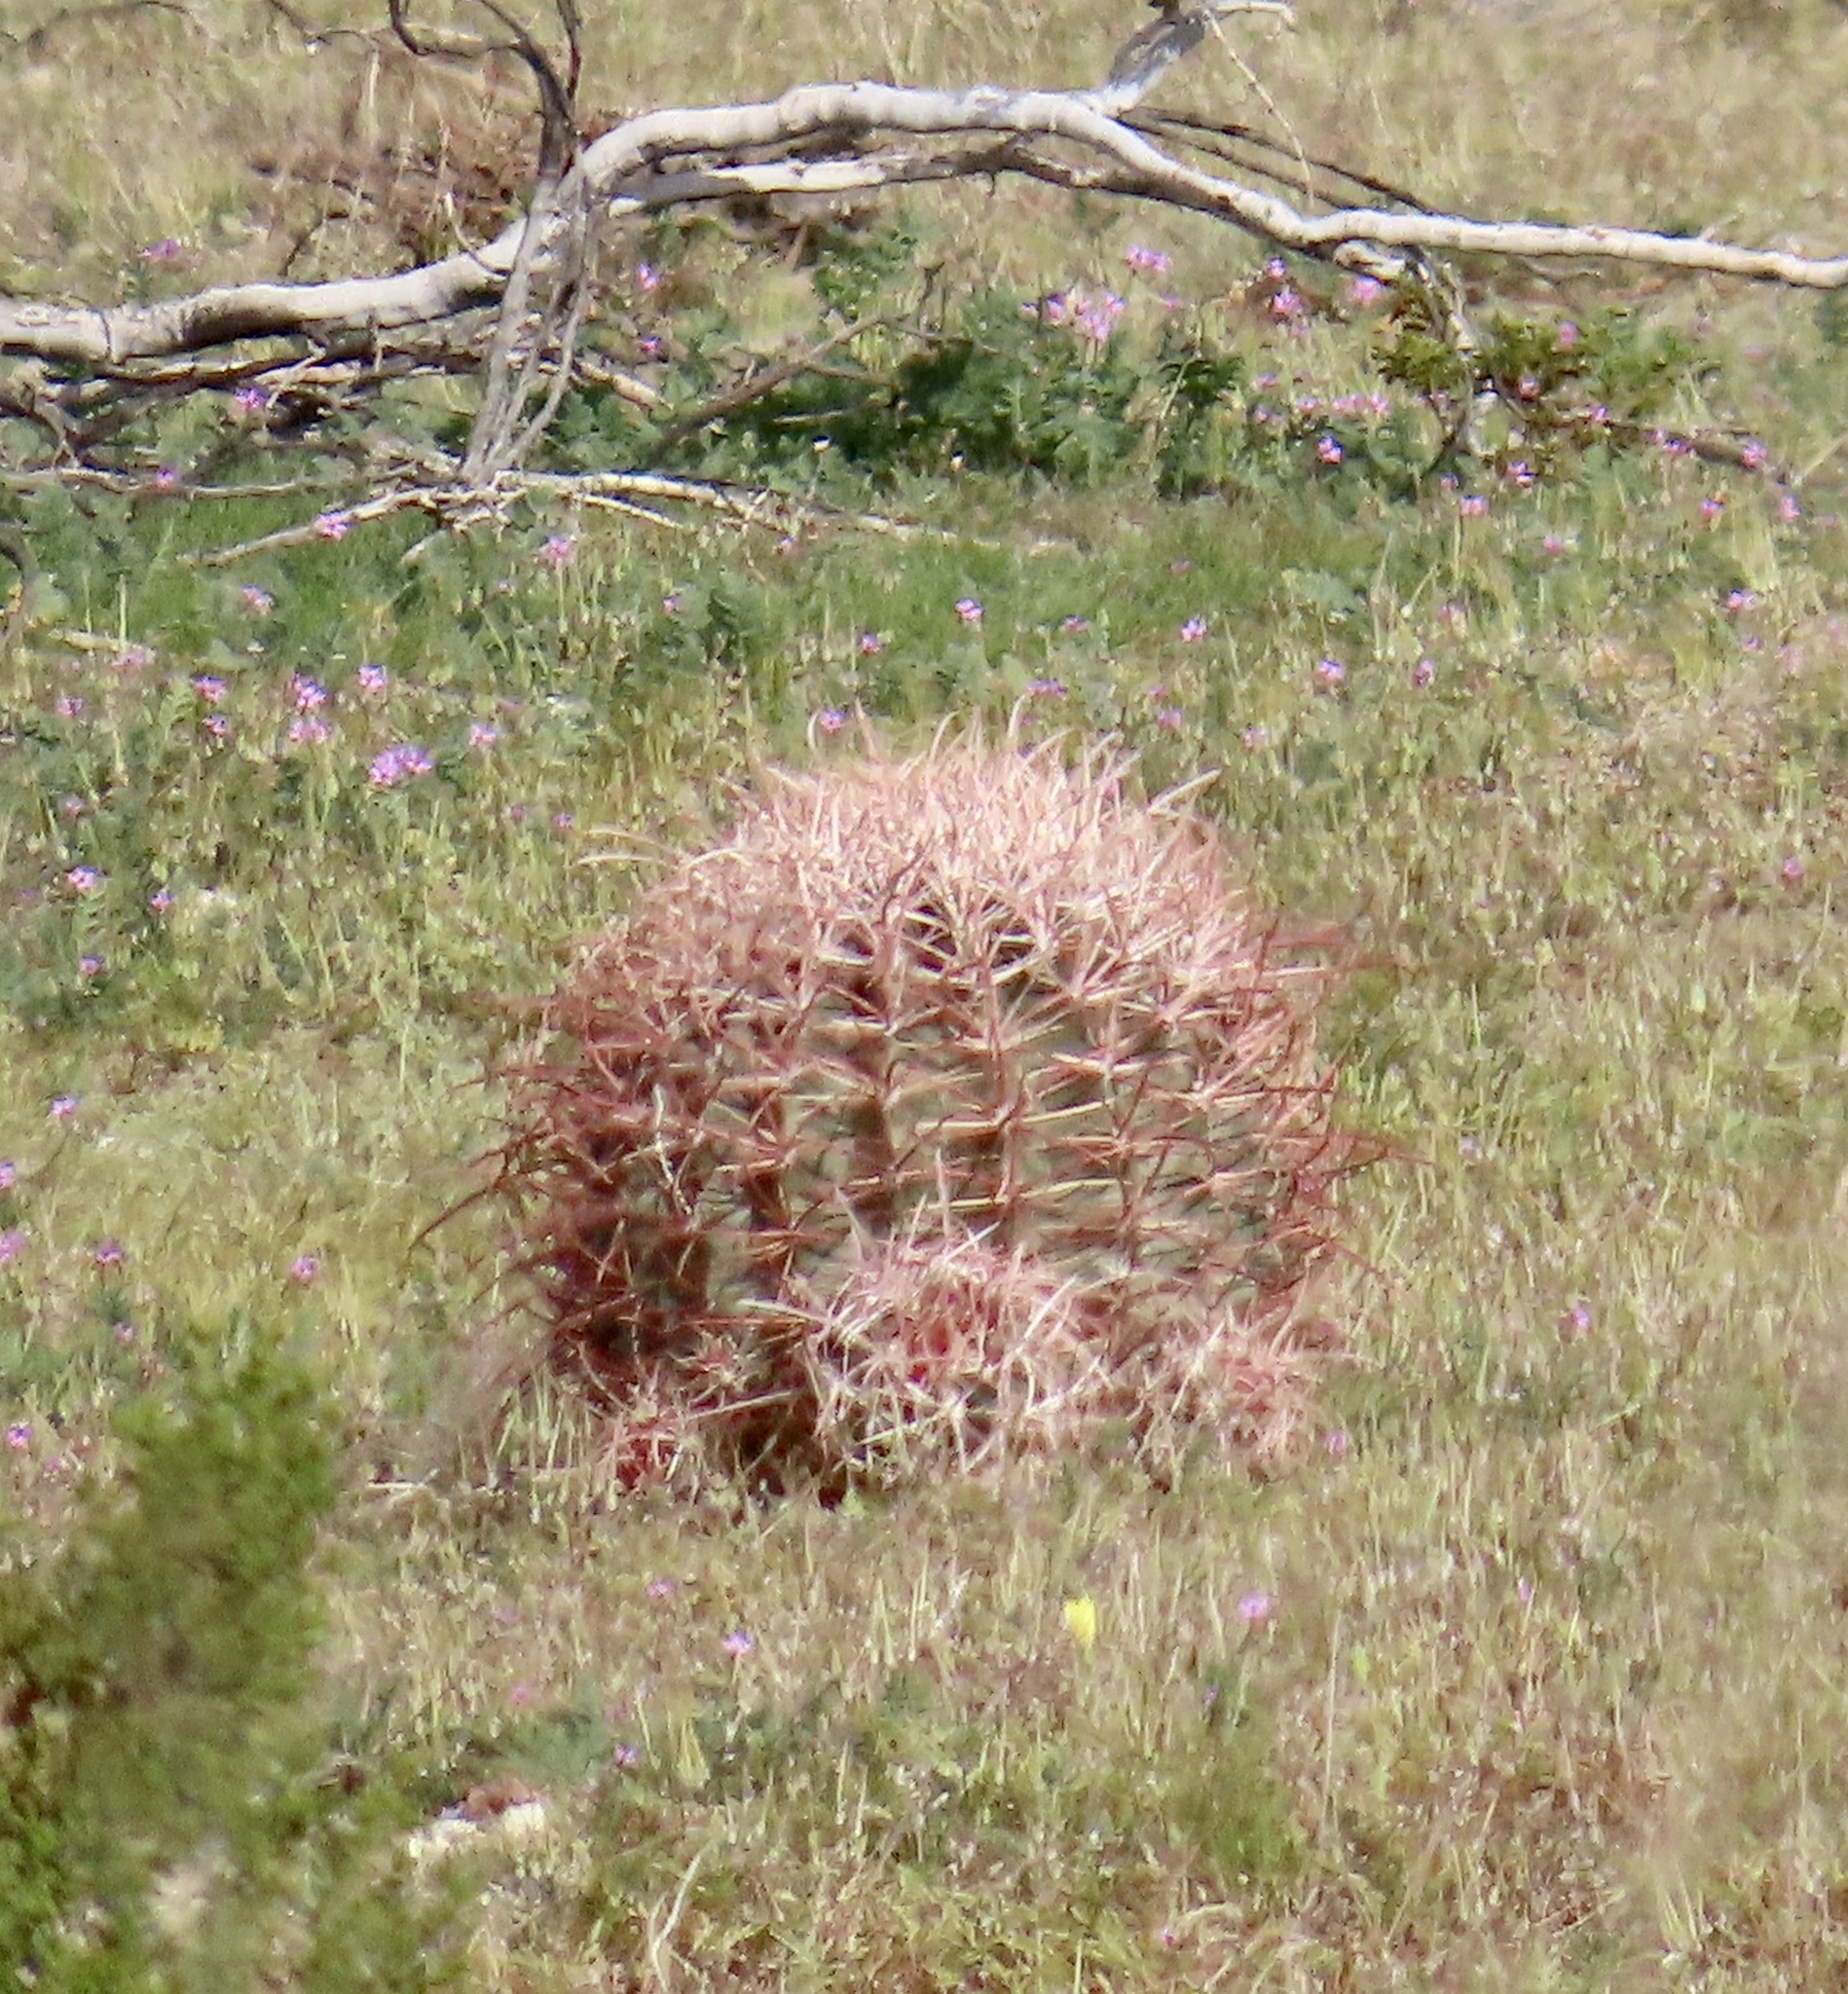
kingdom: Plantae
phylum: Tracheophyta
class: Magnoliopsida
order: Caryophyllales
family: Cactaceae
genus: Ferocactus
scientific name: Ferocactus cylindraceus
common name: California barrel cactus
